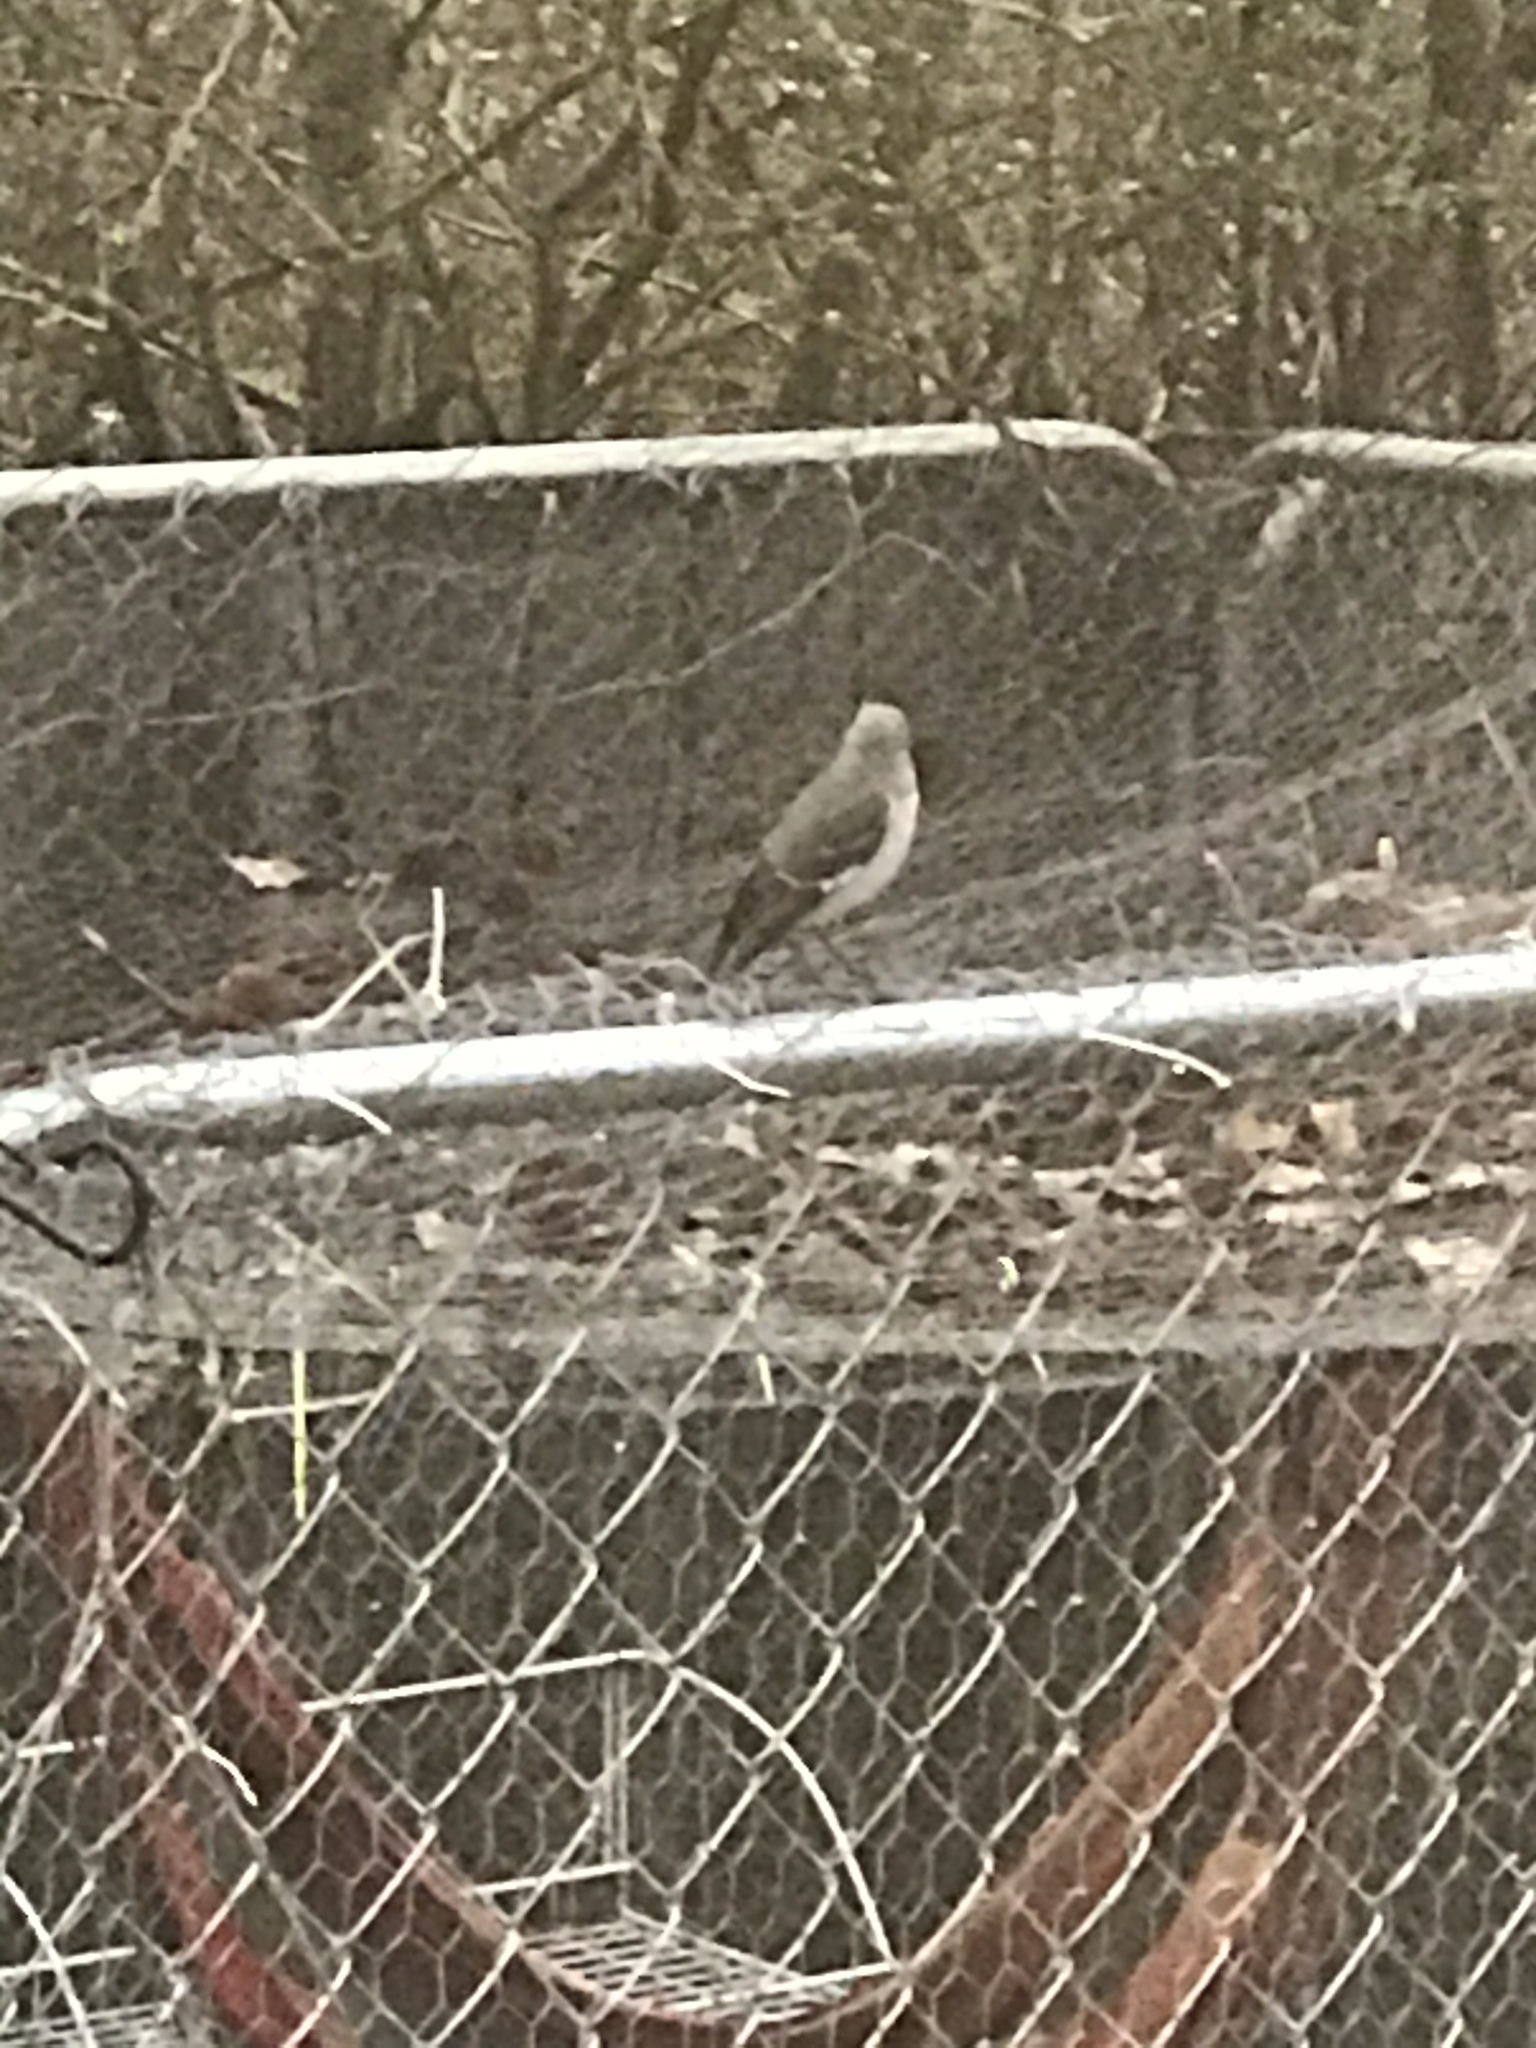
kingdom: Animalia
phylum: Chordata
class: Aves
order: Passeriformes
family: Mimidae
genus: Mimus
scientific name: Mimus polyglottos
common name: Northern mockingbird
